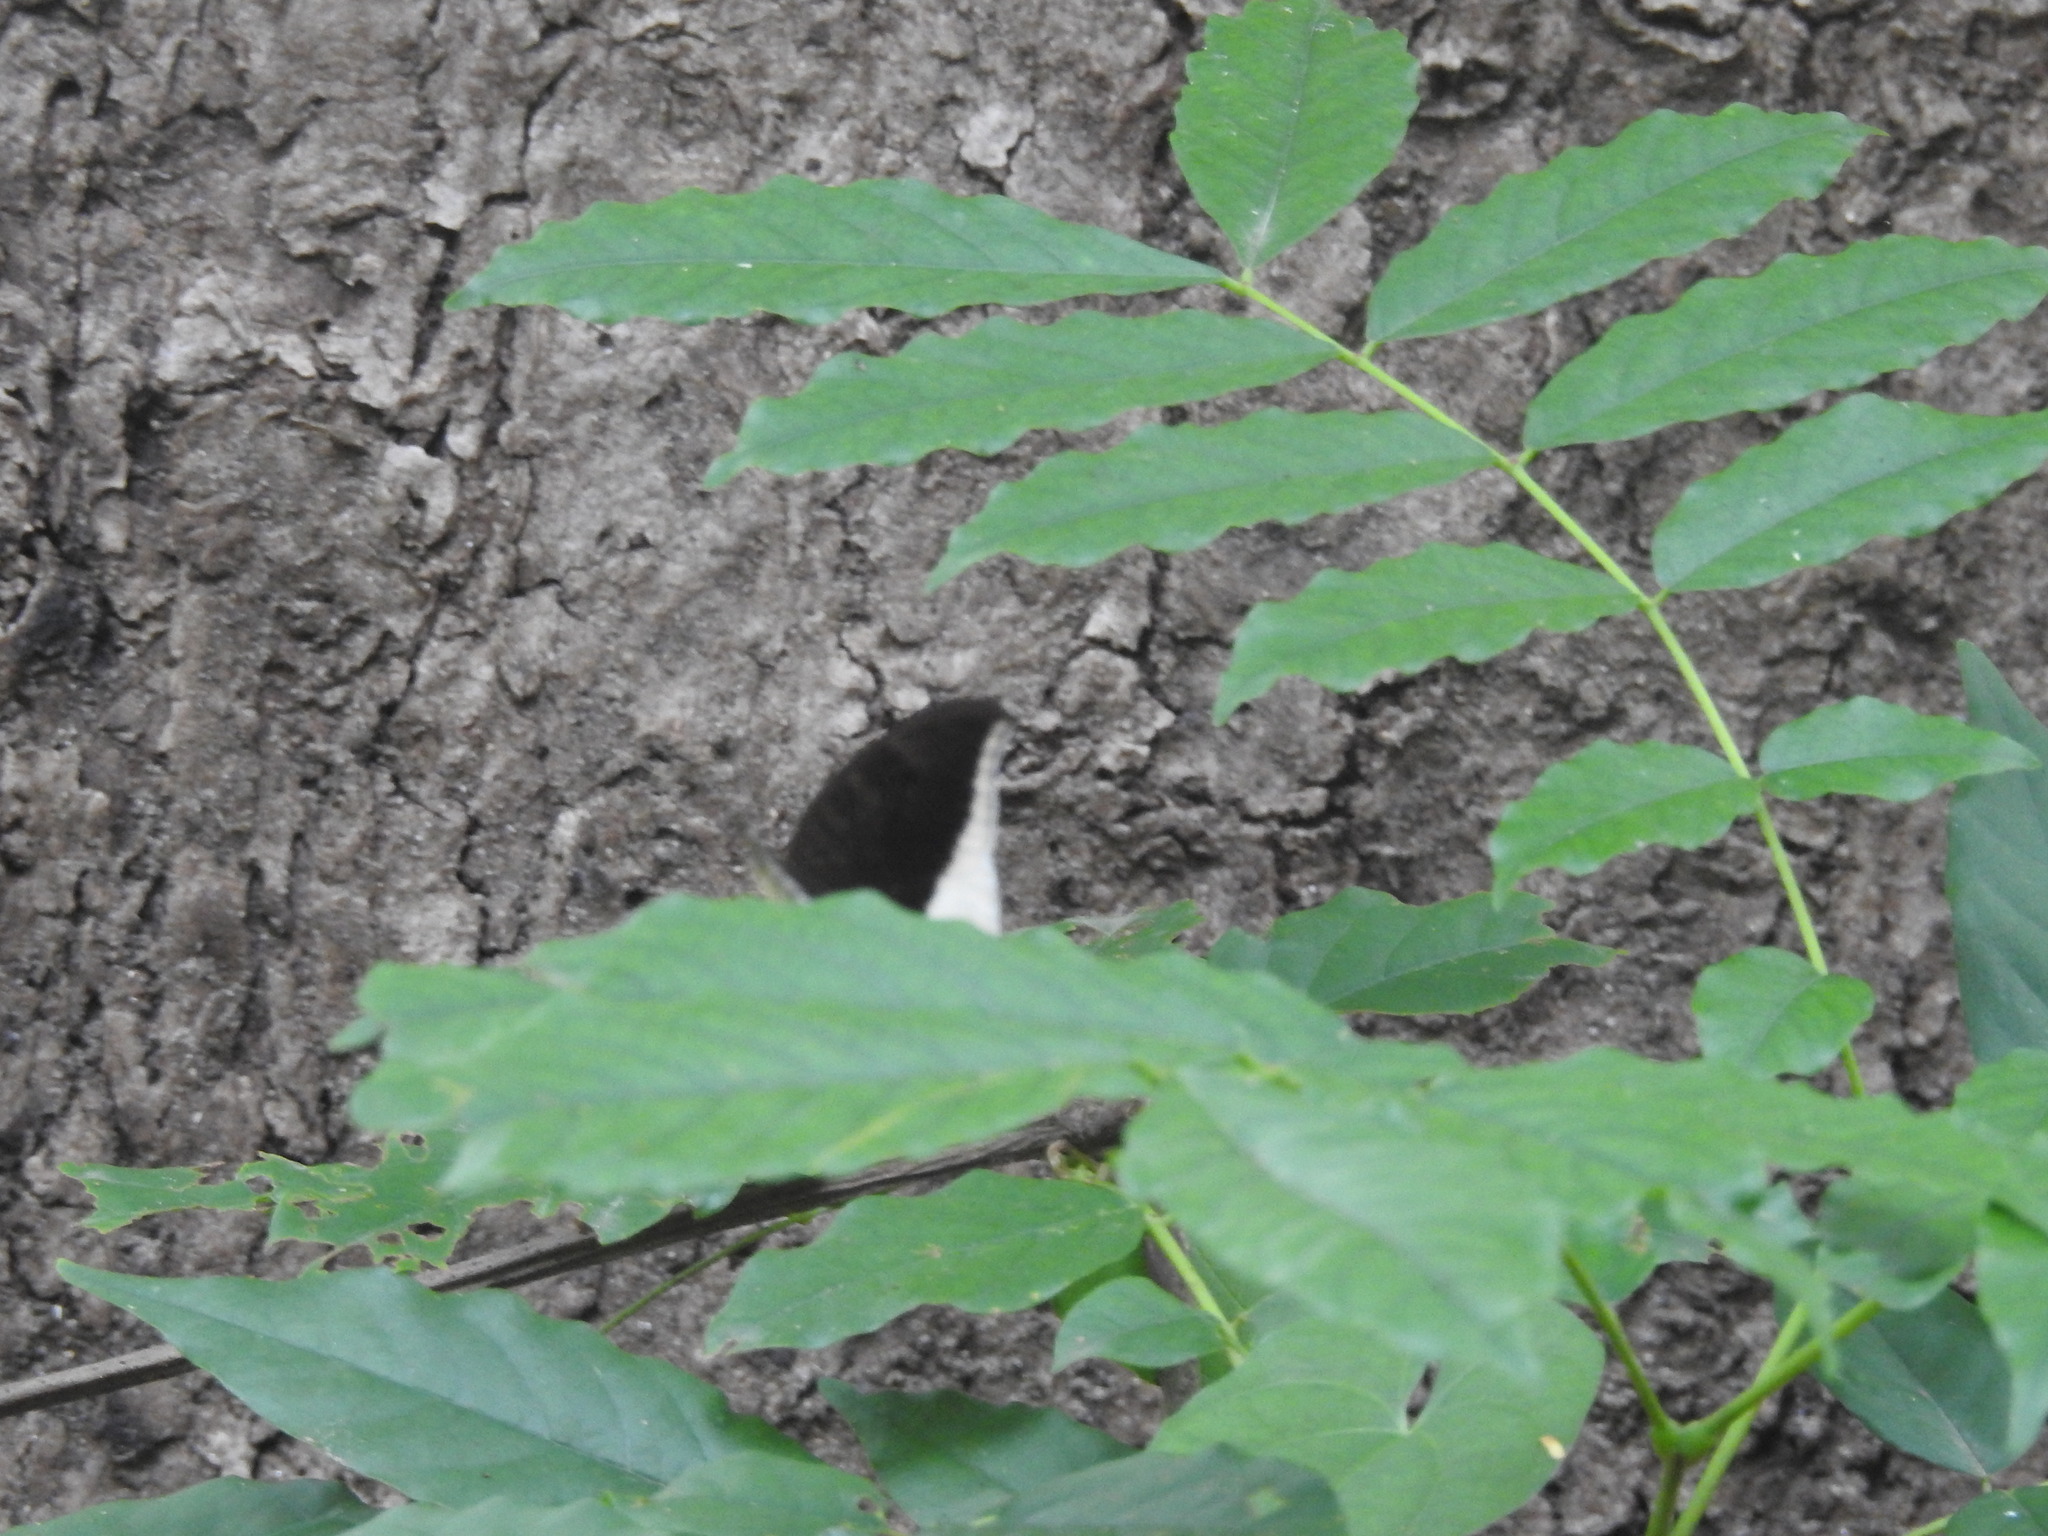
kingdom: Animalia
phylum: Arthropoda
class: Insecta
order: Lepidoptera
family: Nymphalidae
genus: Tanaecia
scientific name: Tanaecia lepidea
